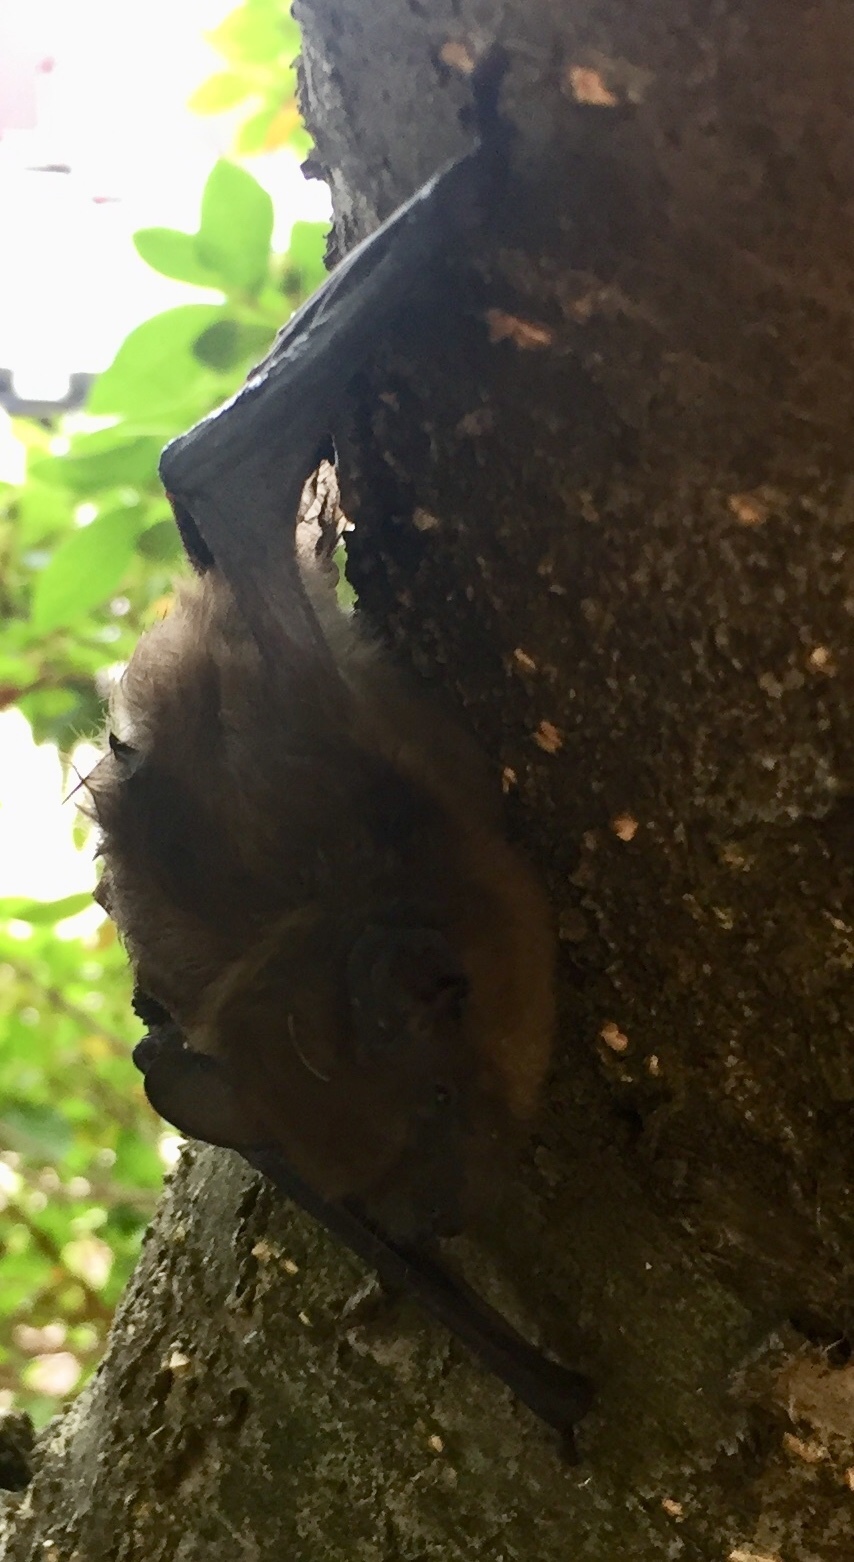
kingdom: Animalia
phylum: Chordata
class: Mammalia
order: Chiroptera
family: Vespertilionidae
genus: Eptesicus
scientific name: Eptesicus fuscus
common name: Big brown bat
